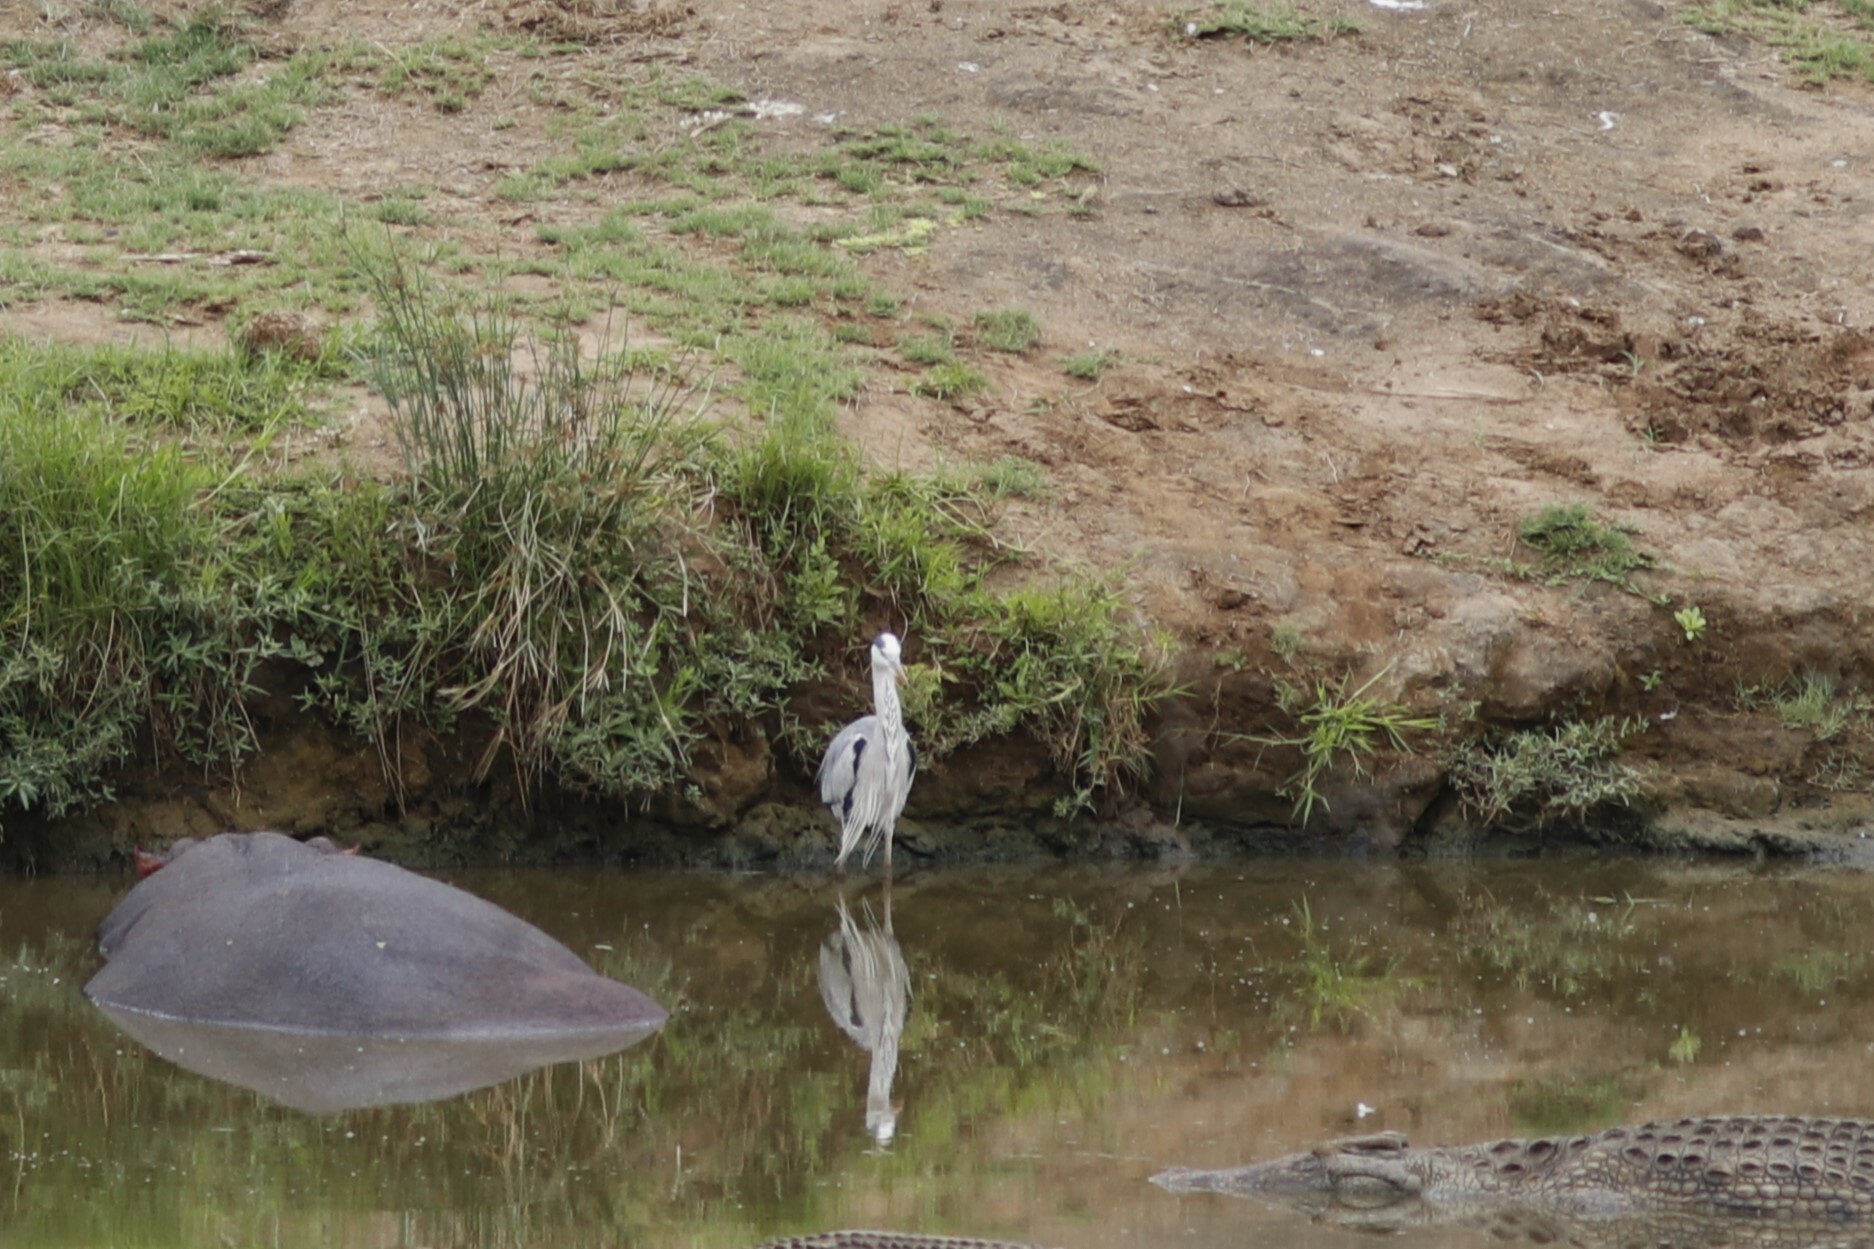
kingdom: Animalia
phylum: Chordata
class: Aves
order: Pelecaniformes
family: Ardeidae
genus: Ardea
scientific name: Ardea cinerea
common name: Grey heron
